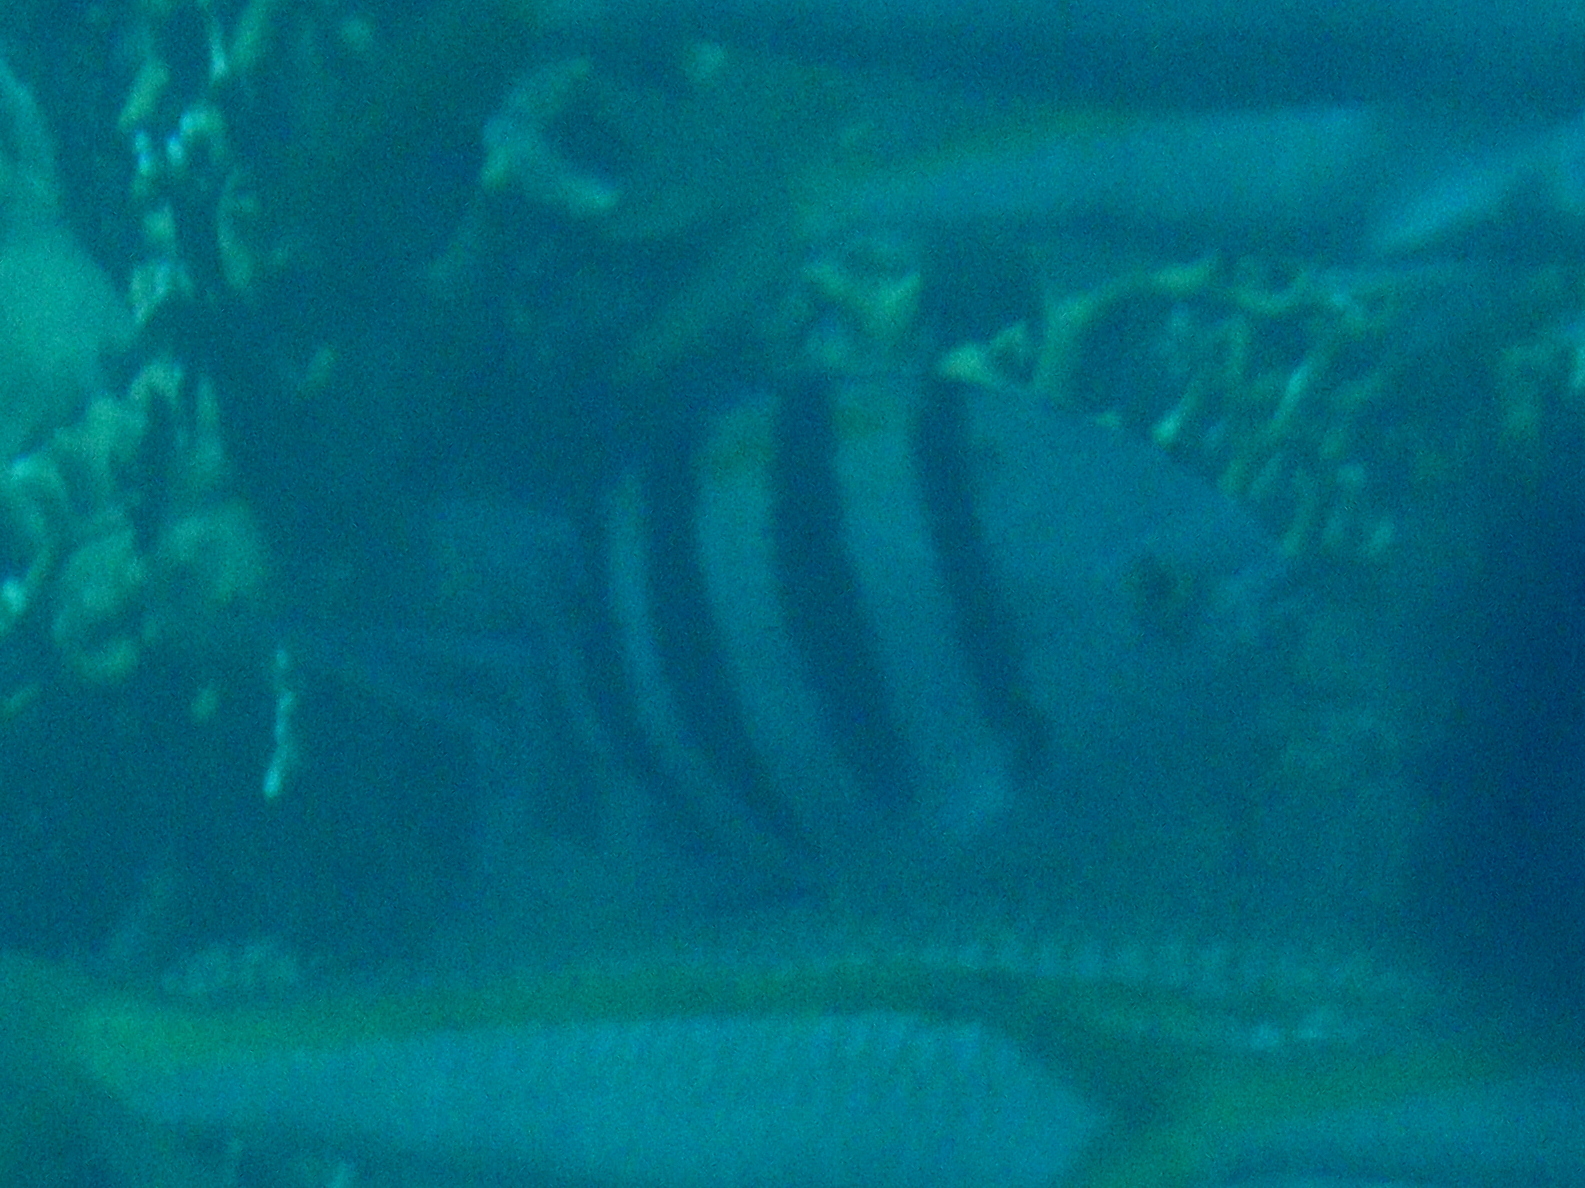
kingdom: Animalia
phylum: Chordata
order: Perciformes
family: Pomacentridae
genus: Abudefduf
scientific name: Abudefduf vaigiensis
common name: Indo-pacific sergeant
